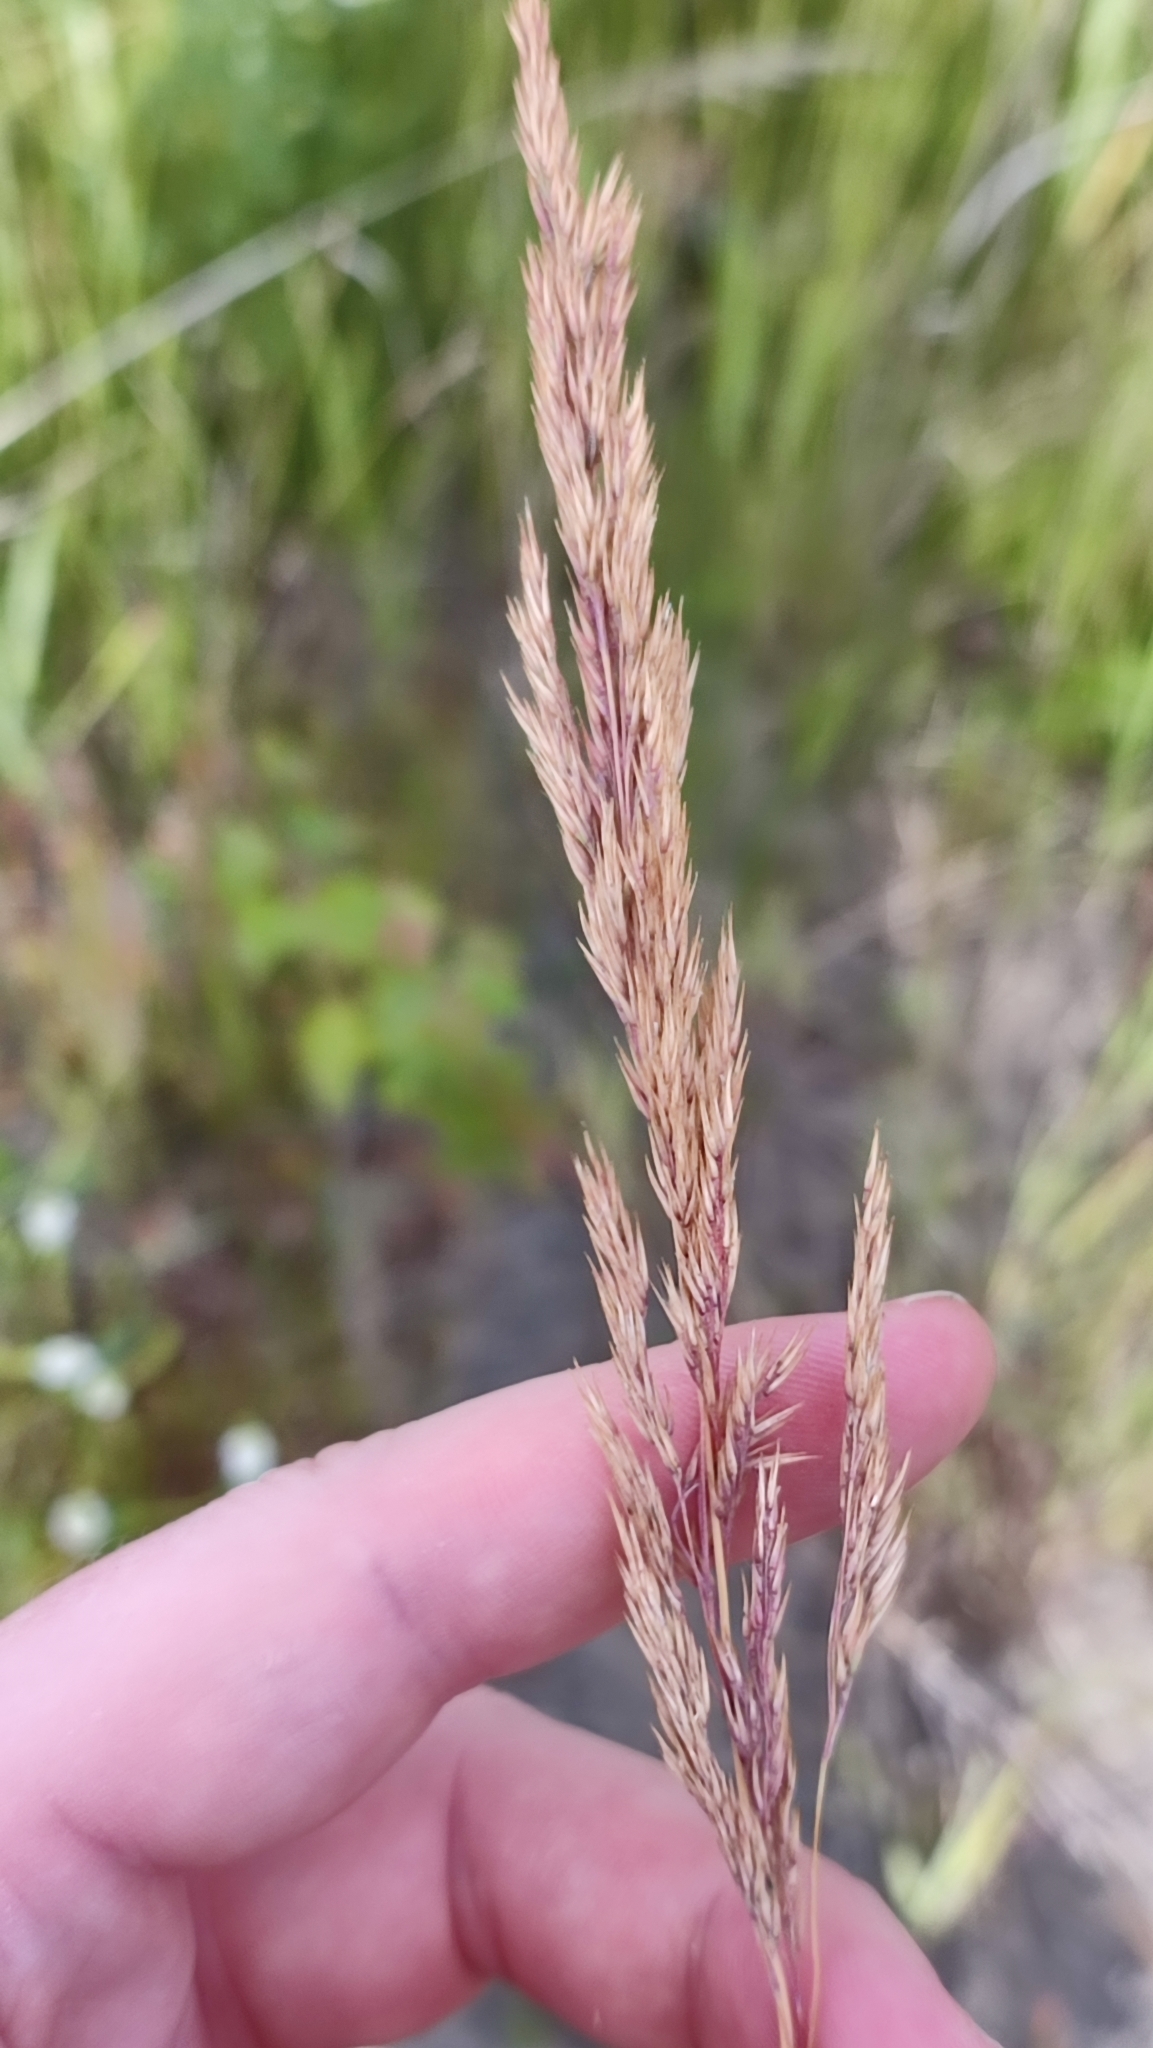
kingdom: Plantae
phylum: Tracheophyta
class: Liliopsida
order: Poales
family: Poaceae
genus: Calamagrostis
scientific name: Calamagrostis purpurea
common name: Scandinavian small-reed
